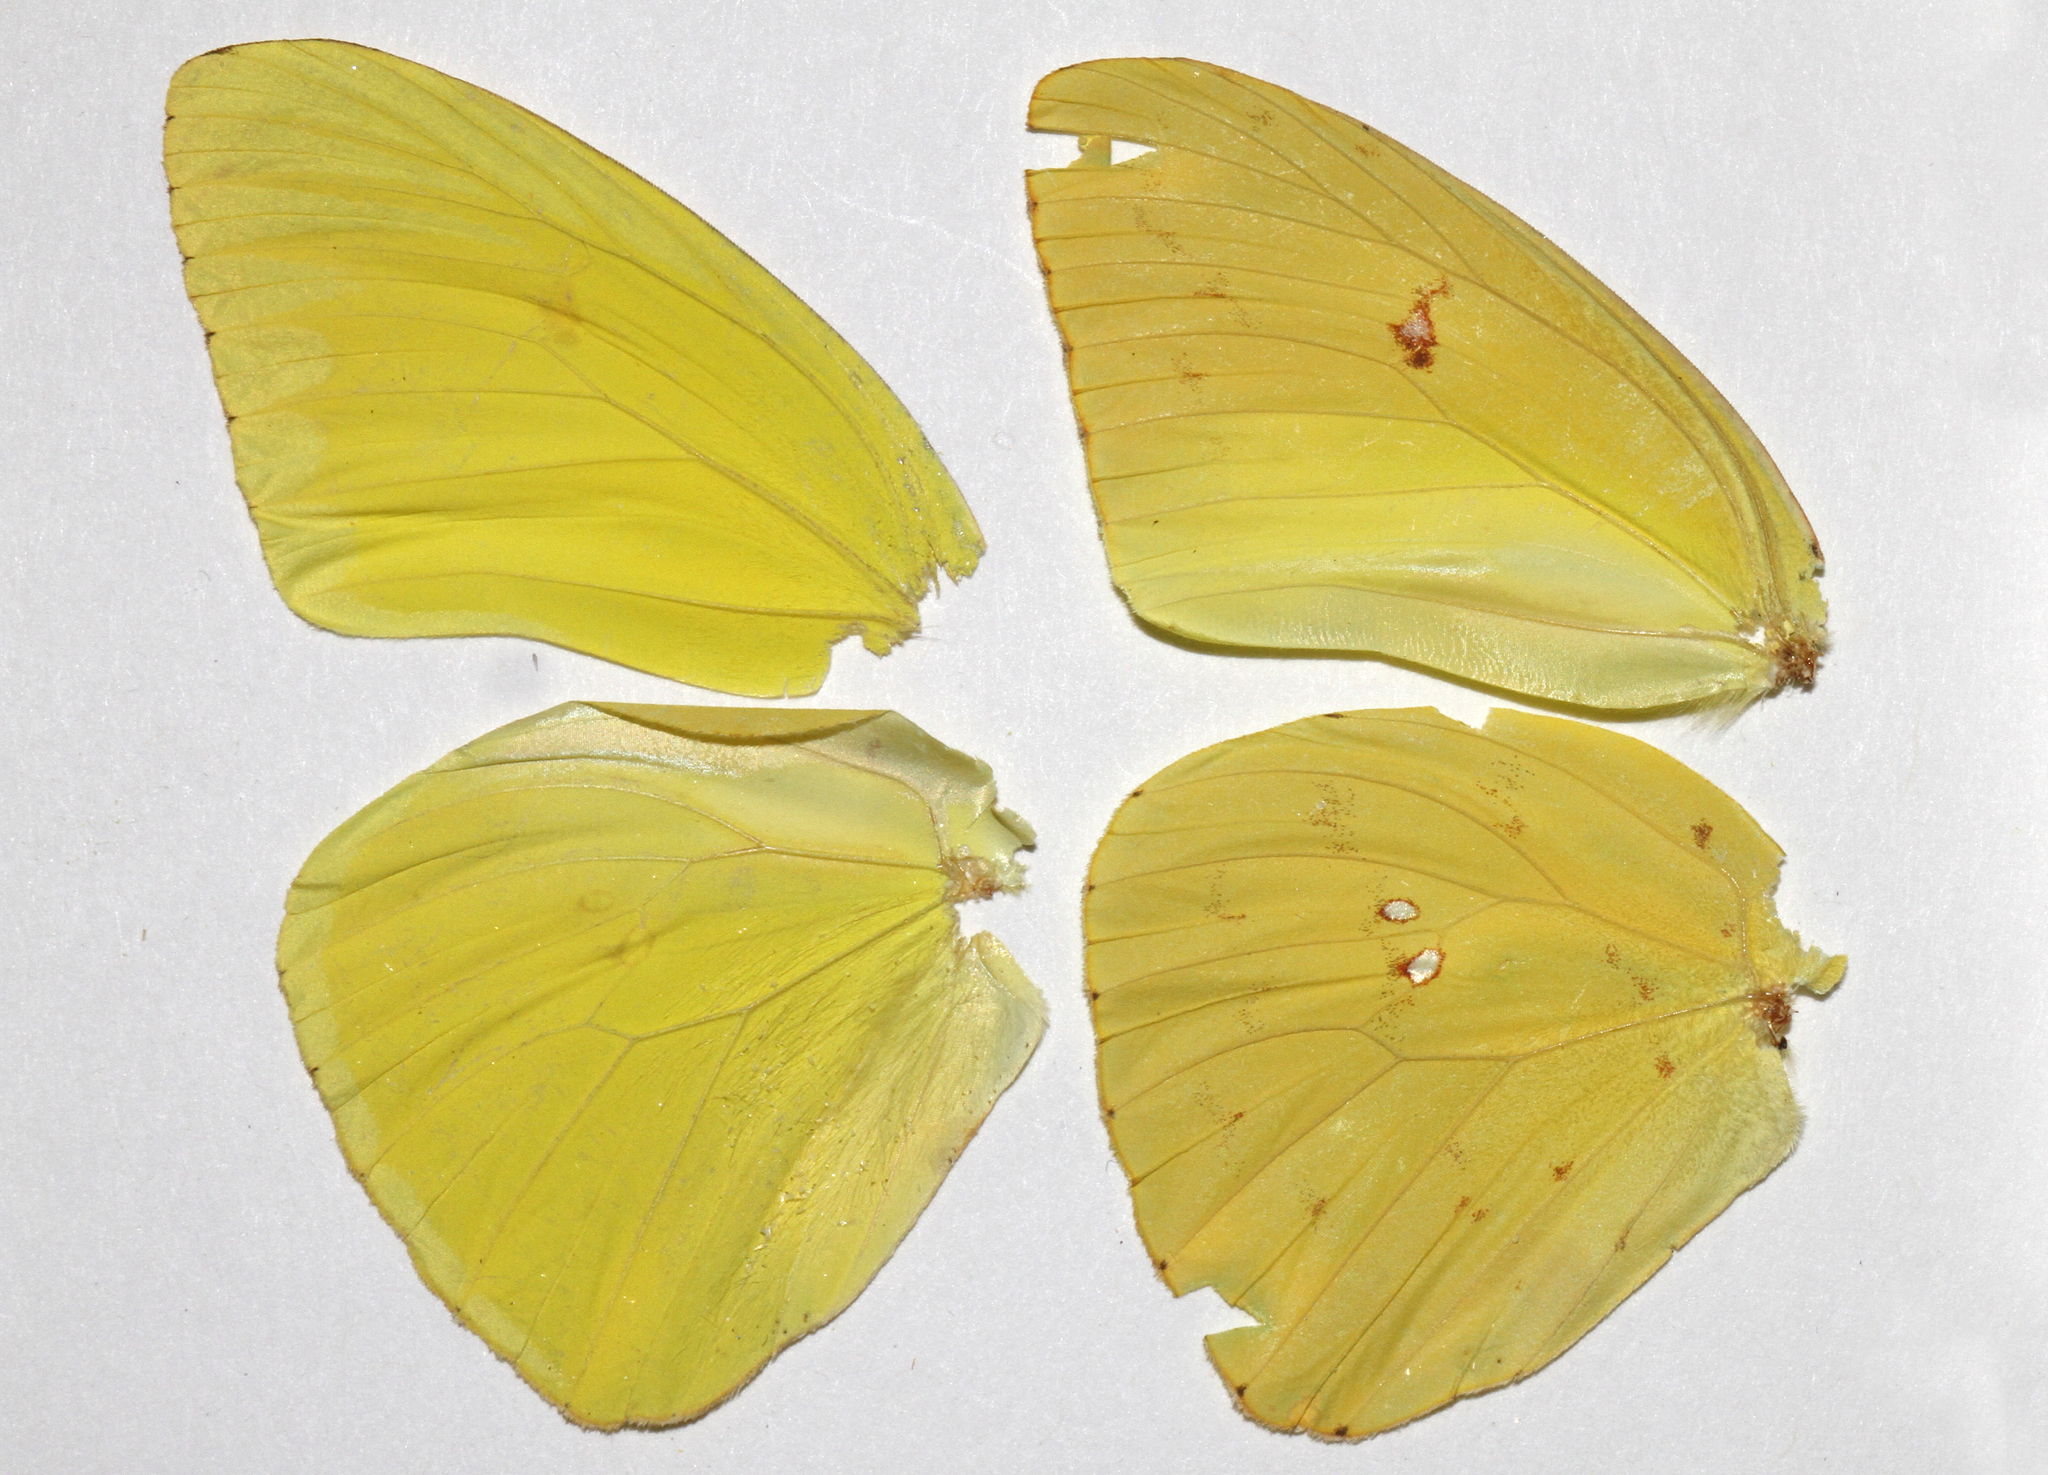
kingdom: Animalia
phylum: Arthropoda
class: Insecta
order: Lepidoptera
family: Pieridae
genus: Phoebis
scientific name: Phoebis sennae
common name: Cloudless sulphur
